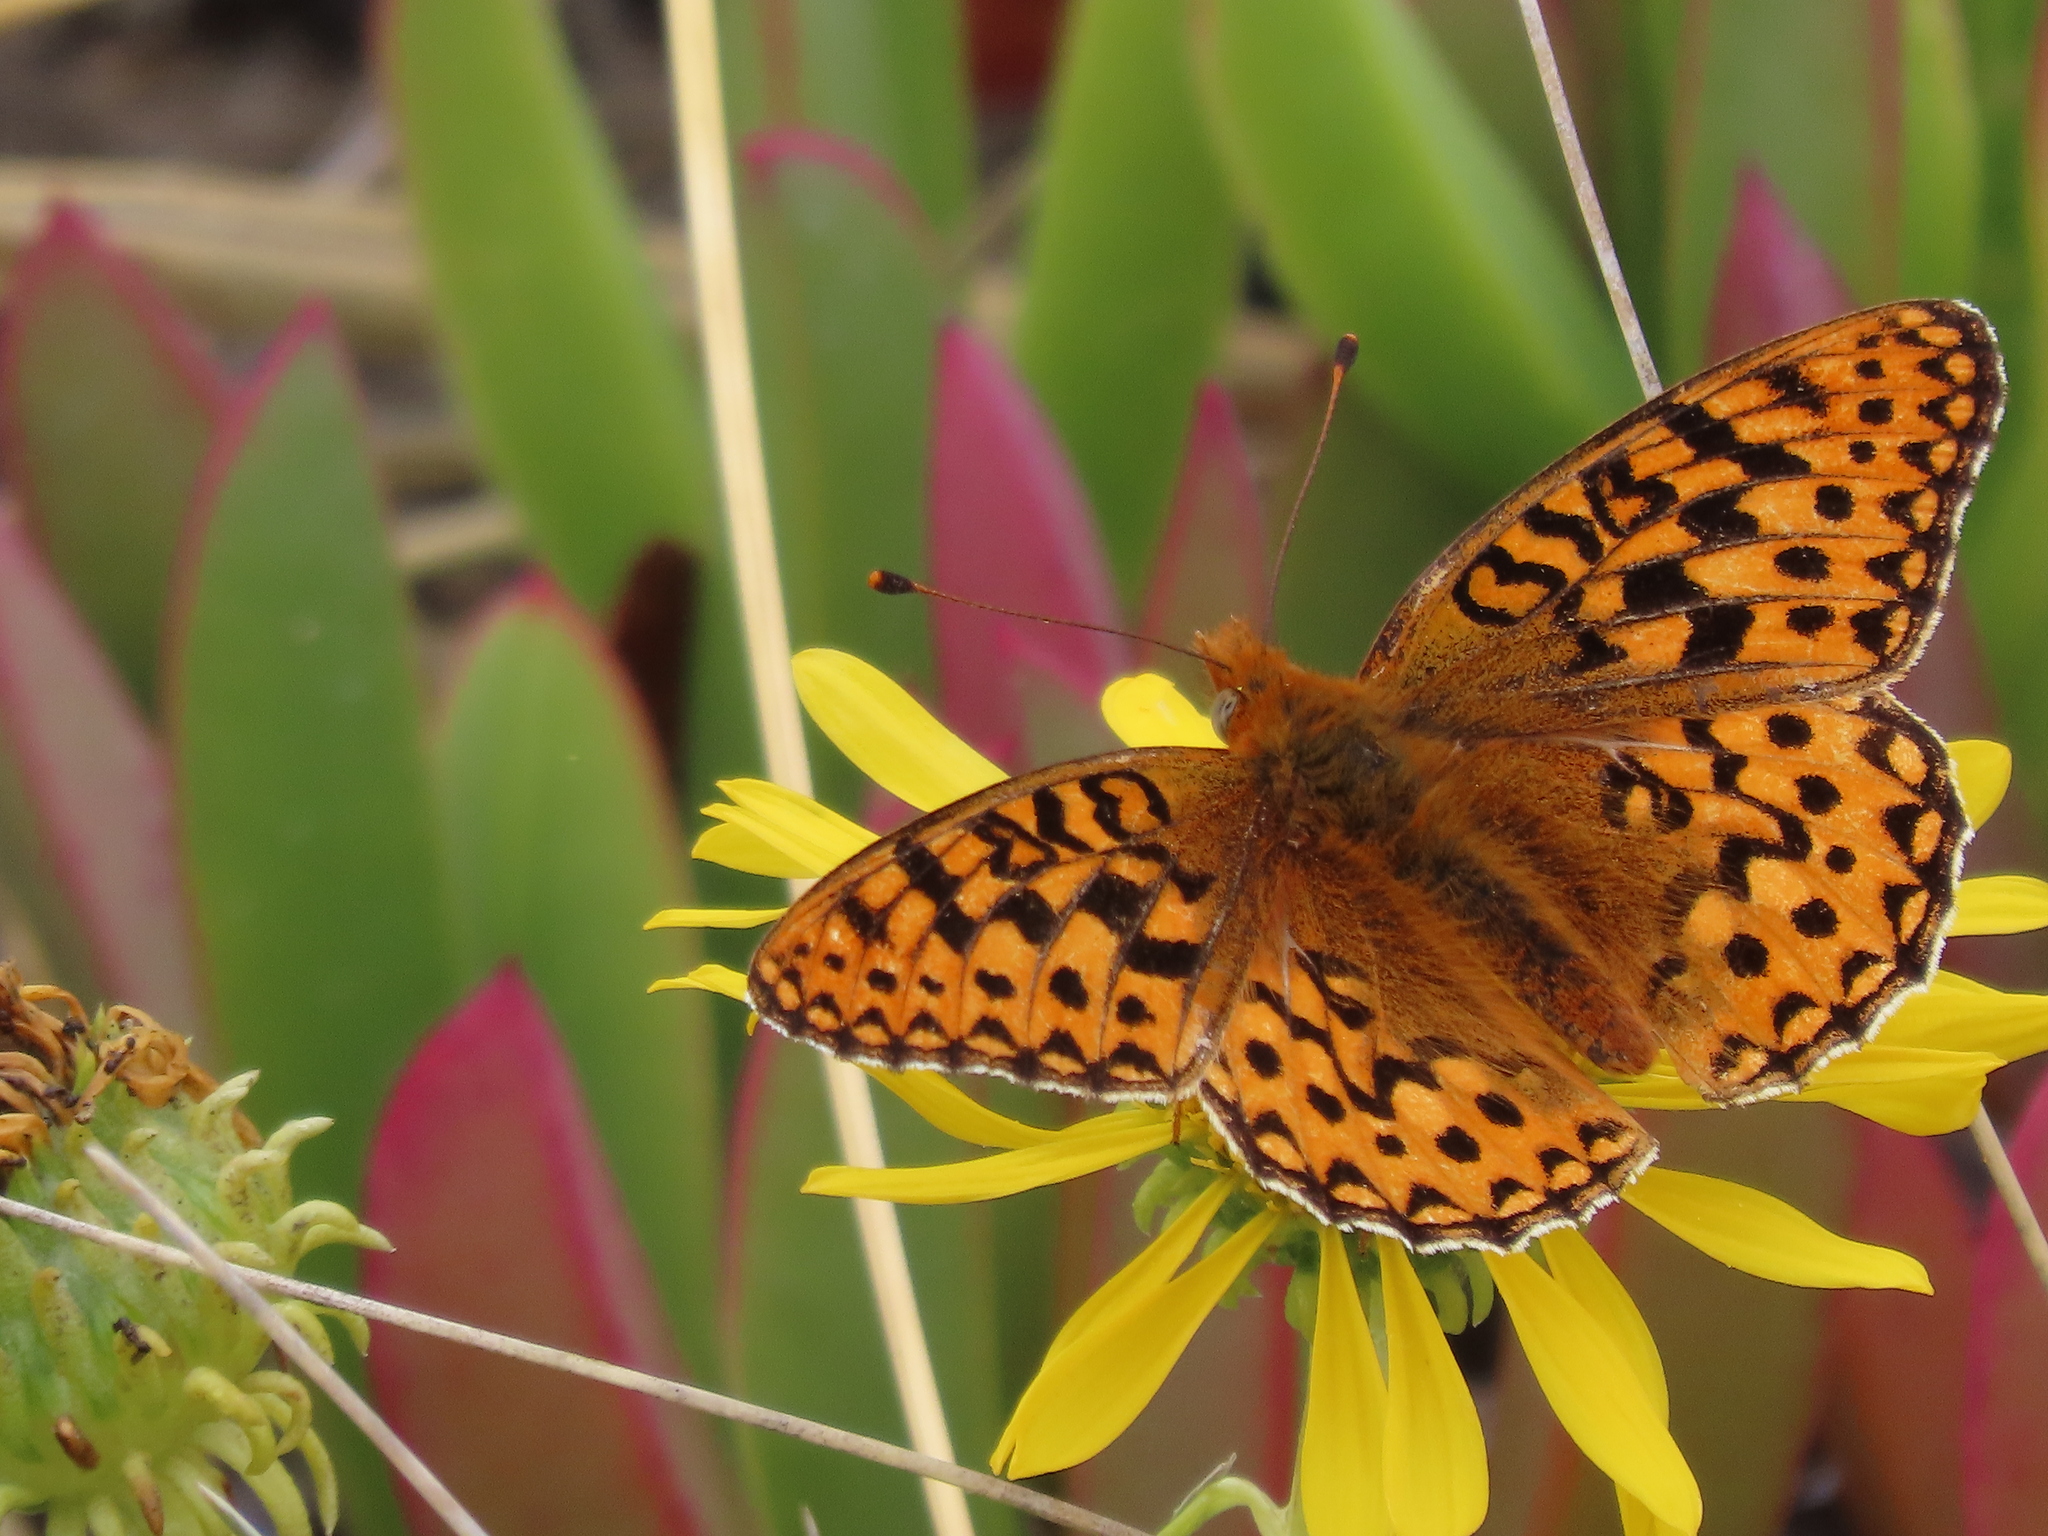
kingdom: Animalia
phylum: Arthropoda
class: Insecta
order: Lepidoptera
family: Nymphalidae
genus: Speyeria
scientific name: Speyeria zerene
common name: Zerene fritillary
